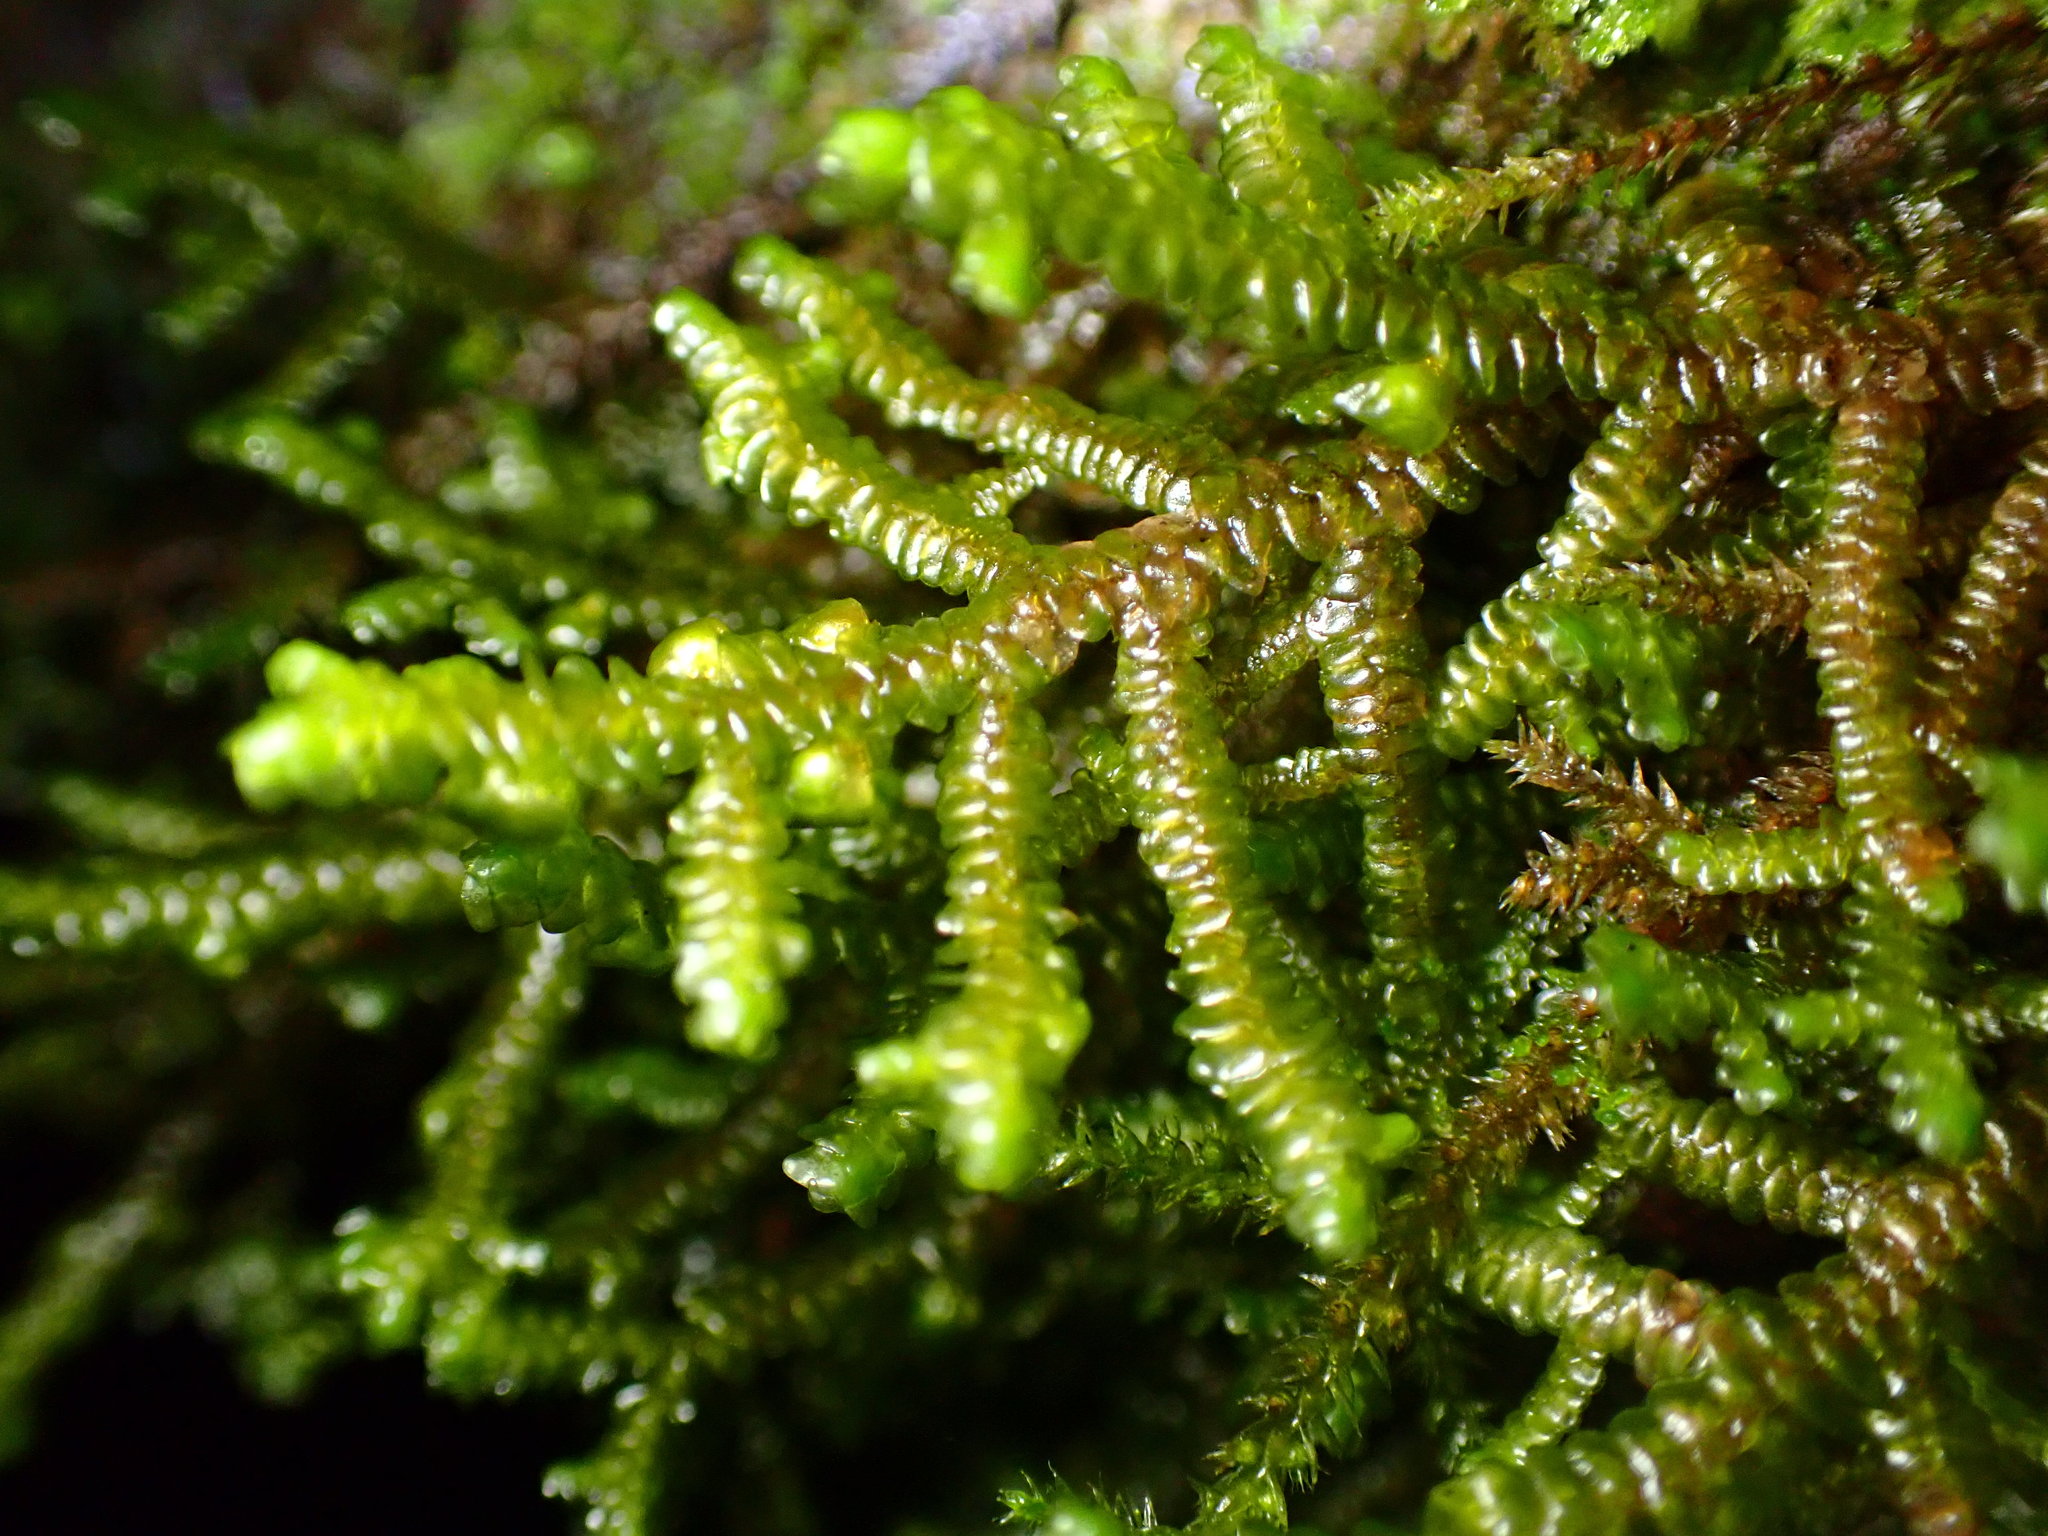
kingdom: Plantae
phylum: Marchantiophyta
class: Jungermanniopsida
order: Porellales
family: Porellaceae
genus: Porella
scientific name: Porella navicularis
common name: Tree ruffle liverwort
